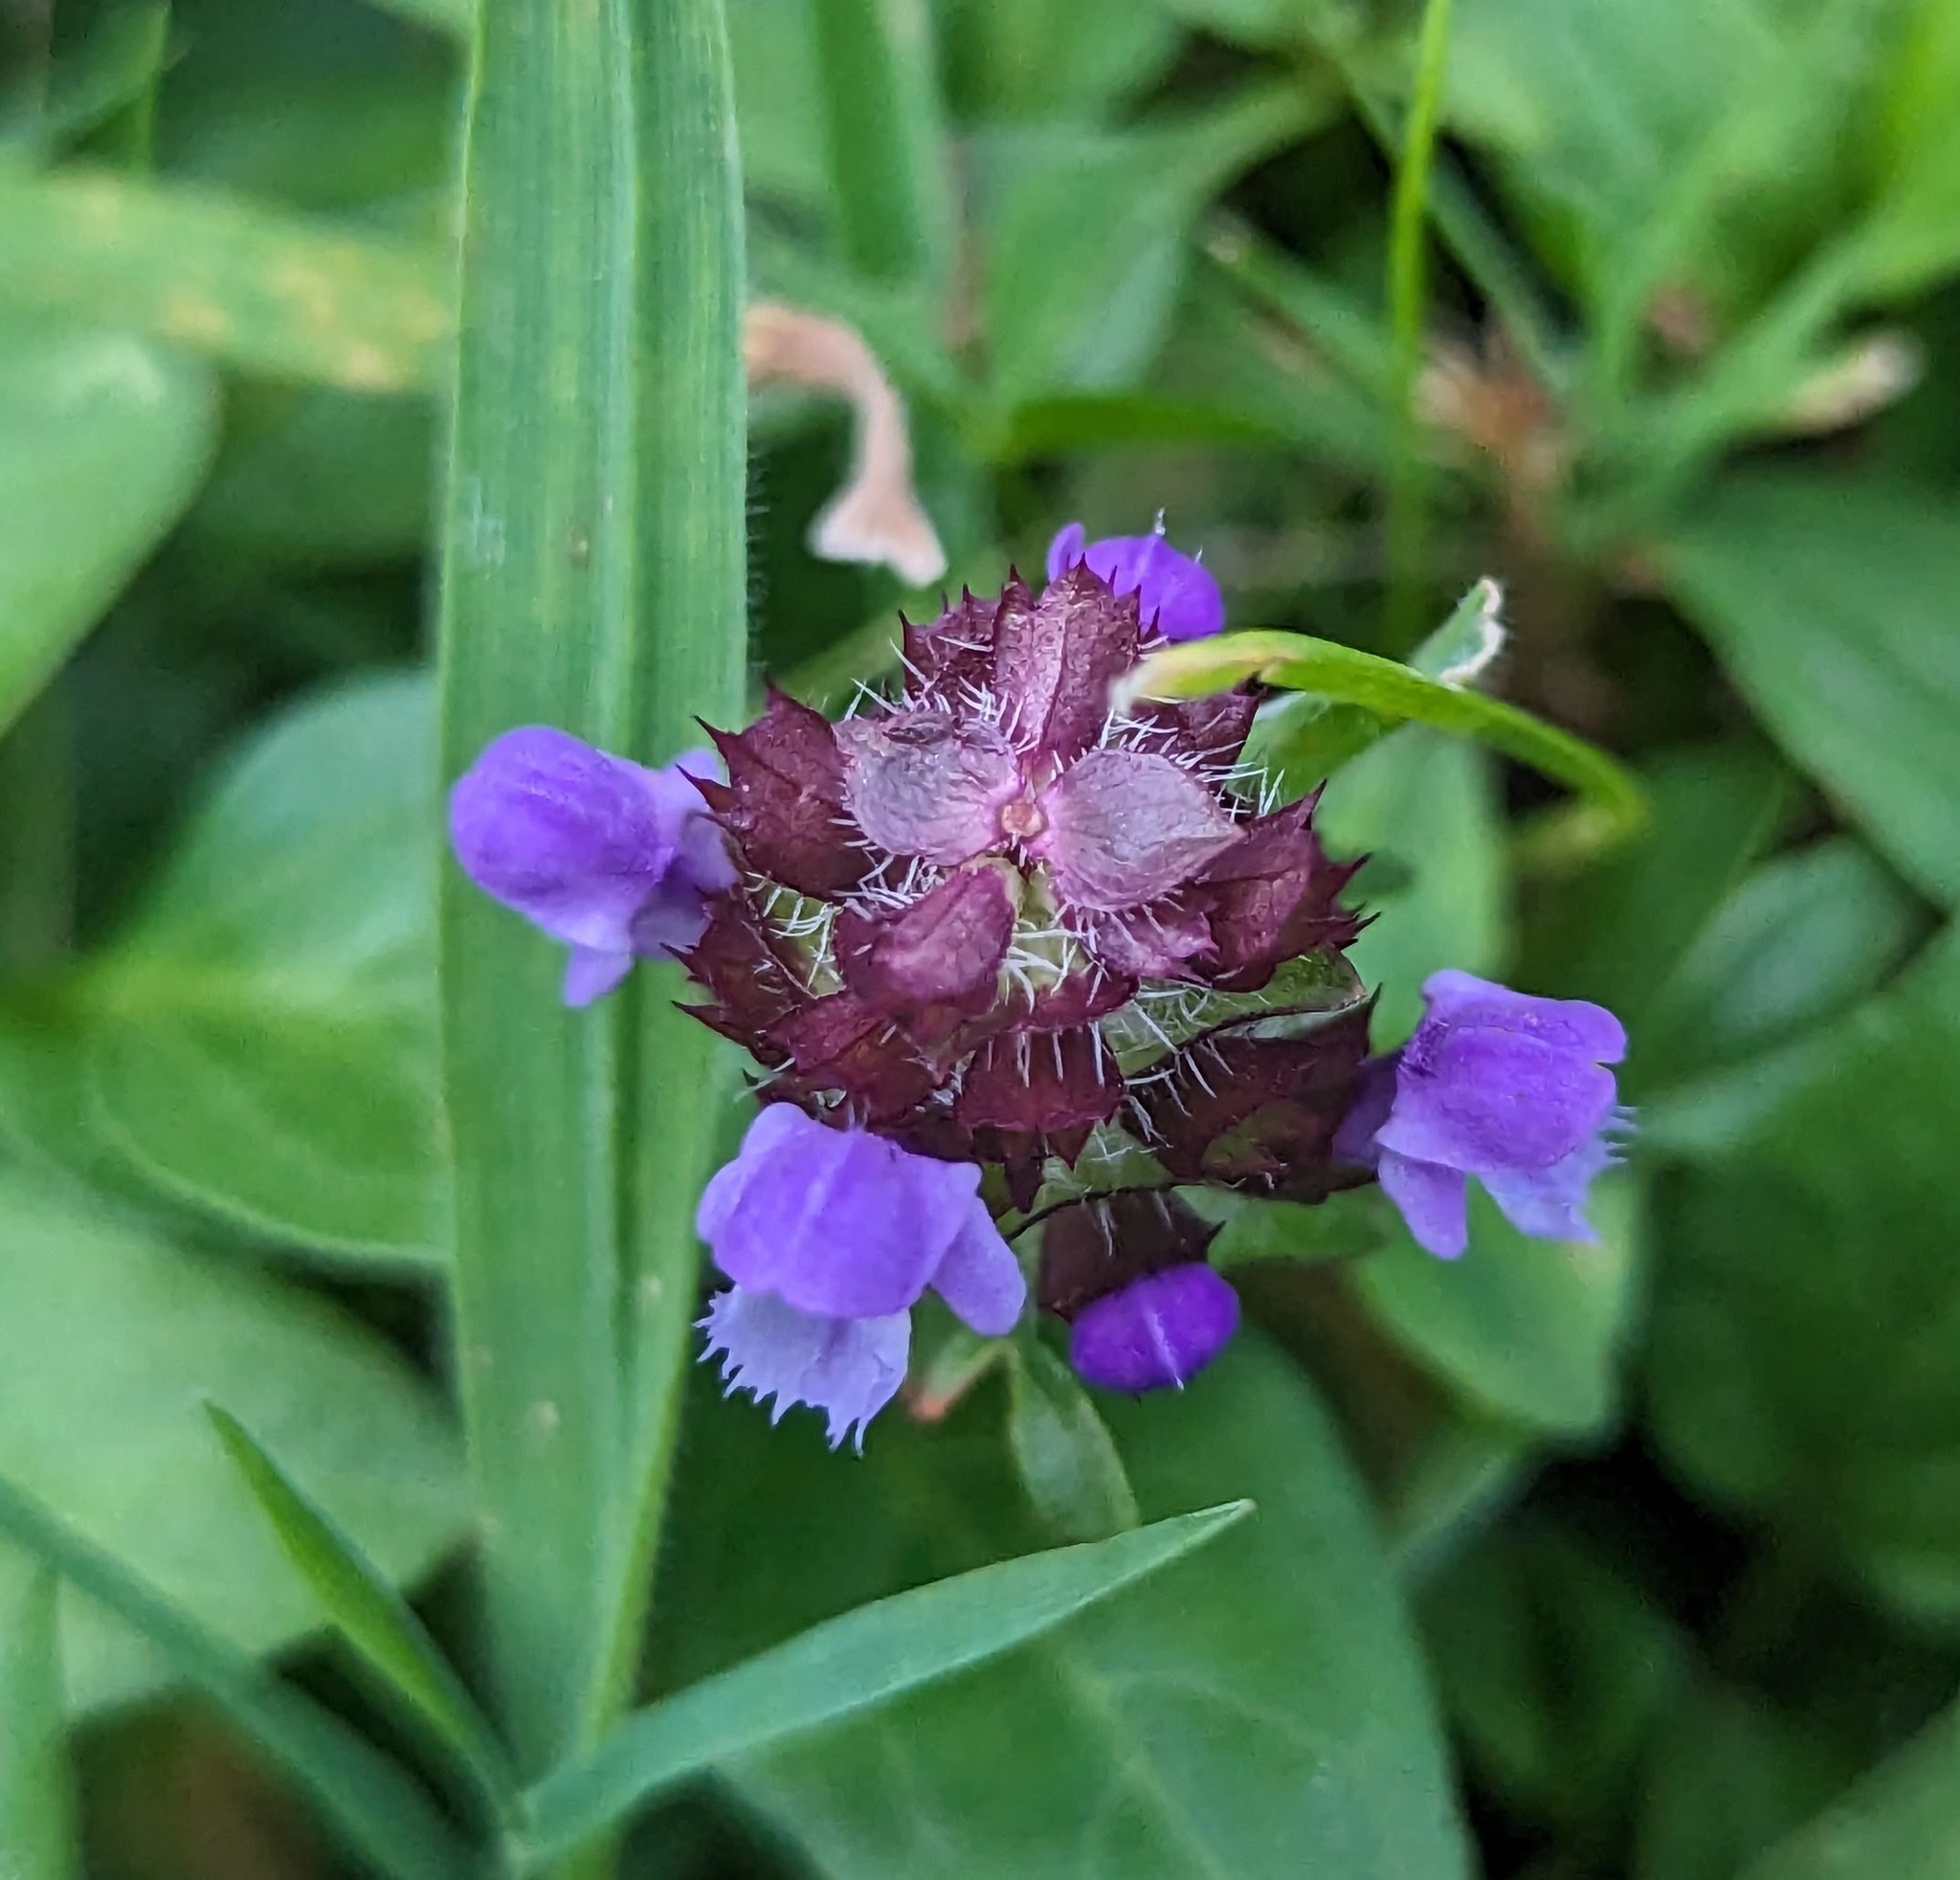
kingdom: Plantae
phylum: Tracheophyta
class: Magnoliopsida
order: Lamiales
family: Lamiaceae
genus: Prunella
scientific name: Prunella vulgaris
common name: Heal-all
